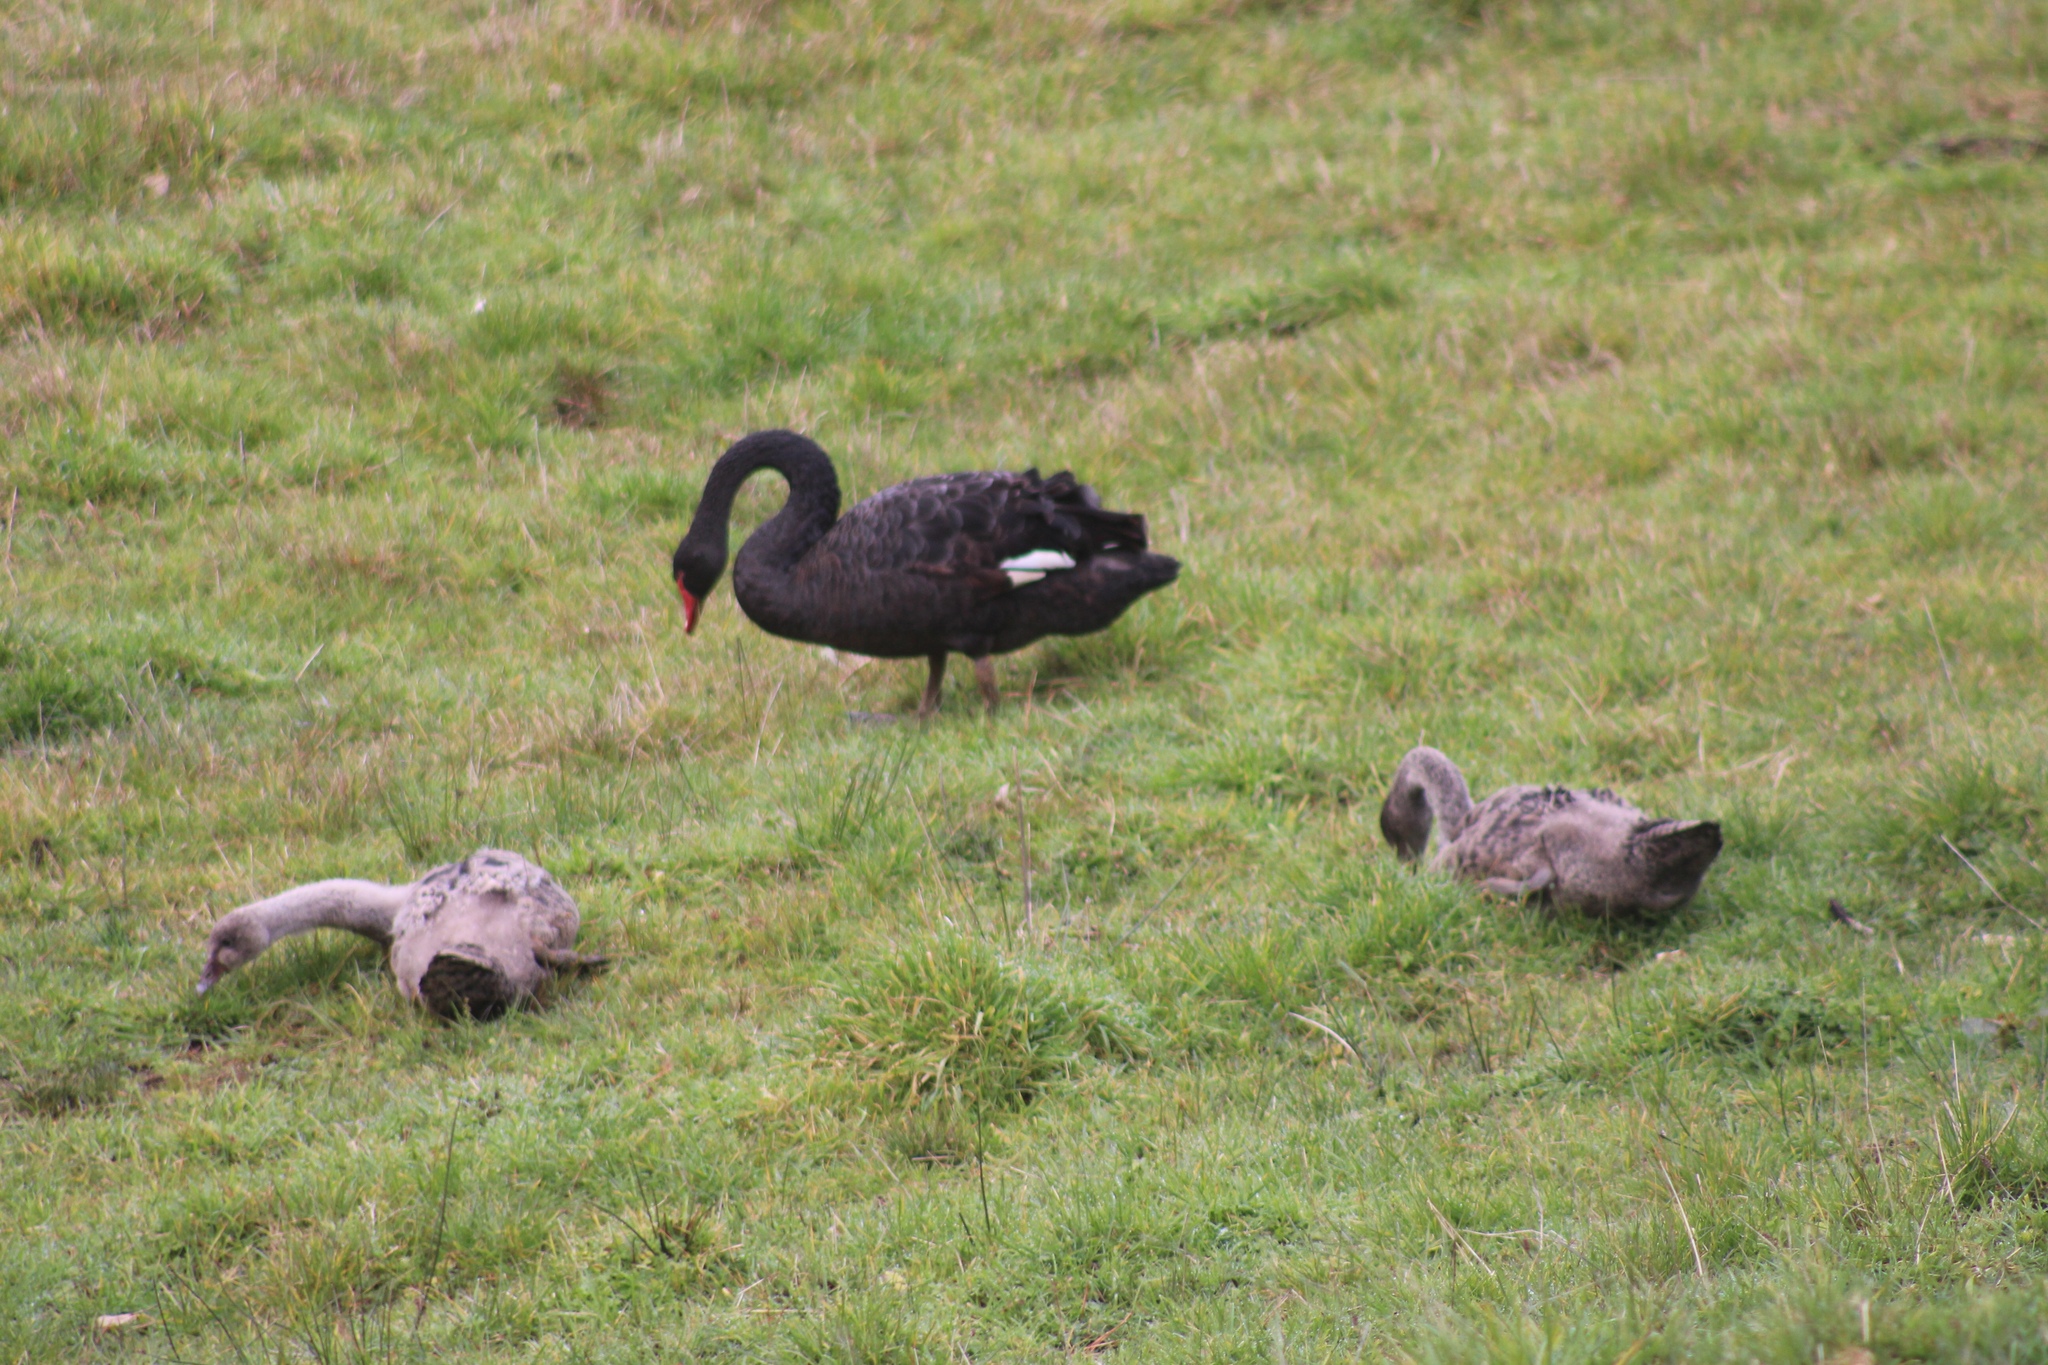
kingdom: Animalia
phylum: Chordata
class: Aves
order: Anseriformes
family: Anatidae
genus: Cygnus
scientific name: Cygnus atratus
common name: Black swan
